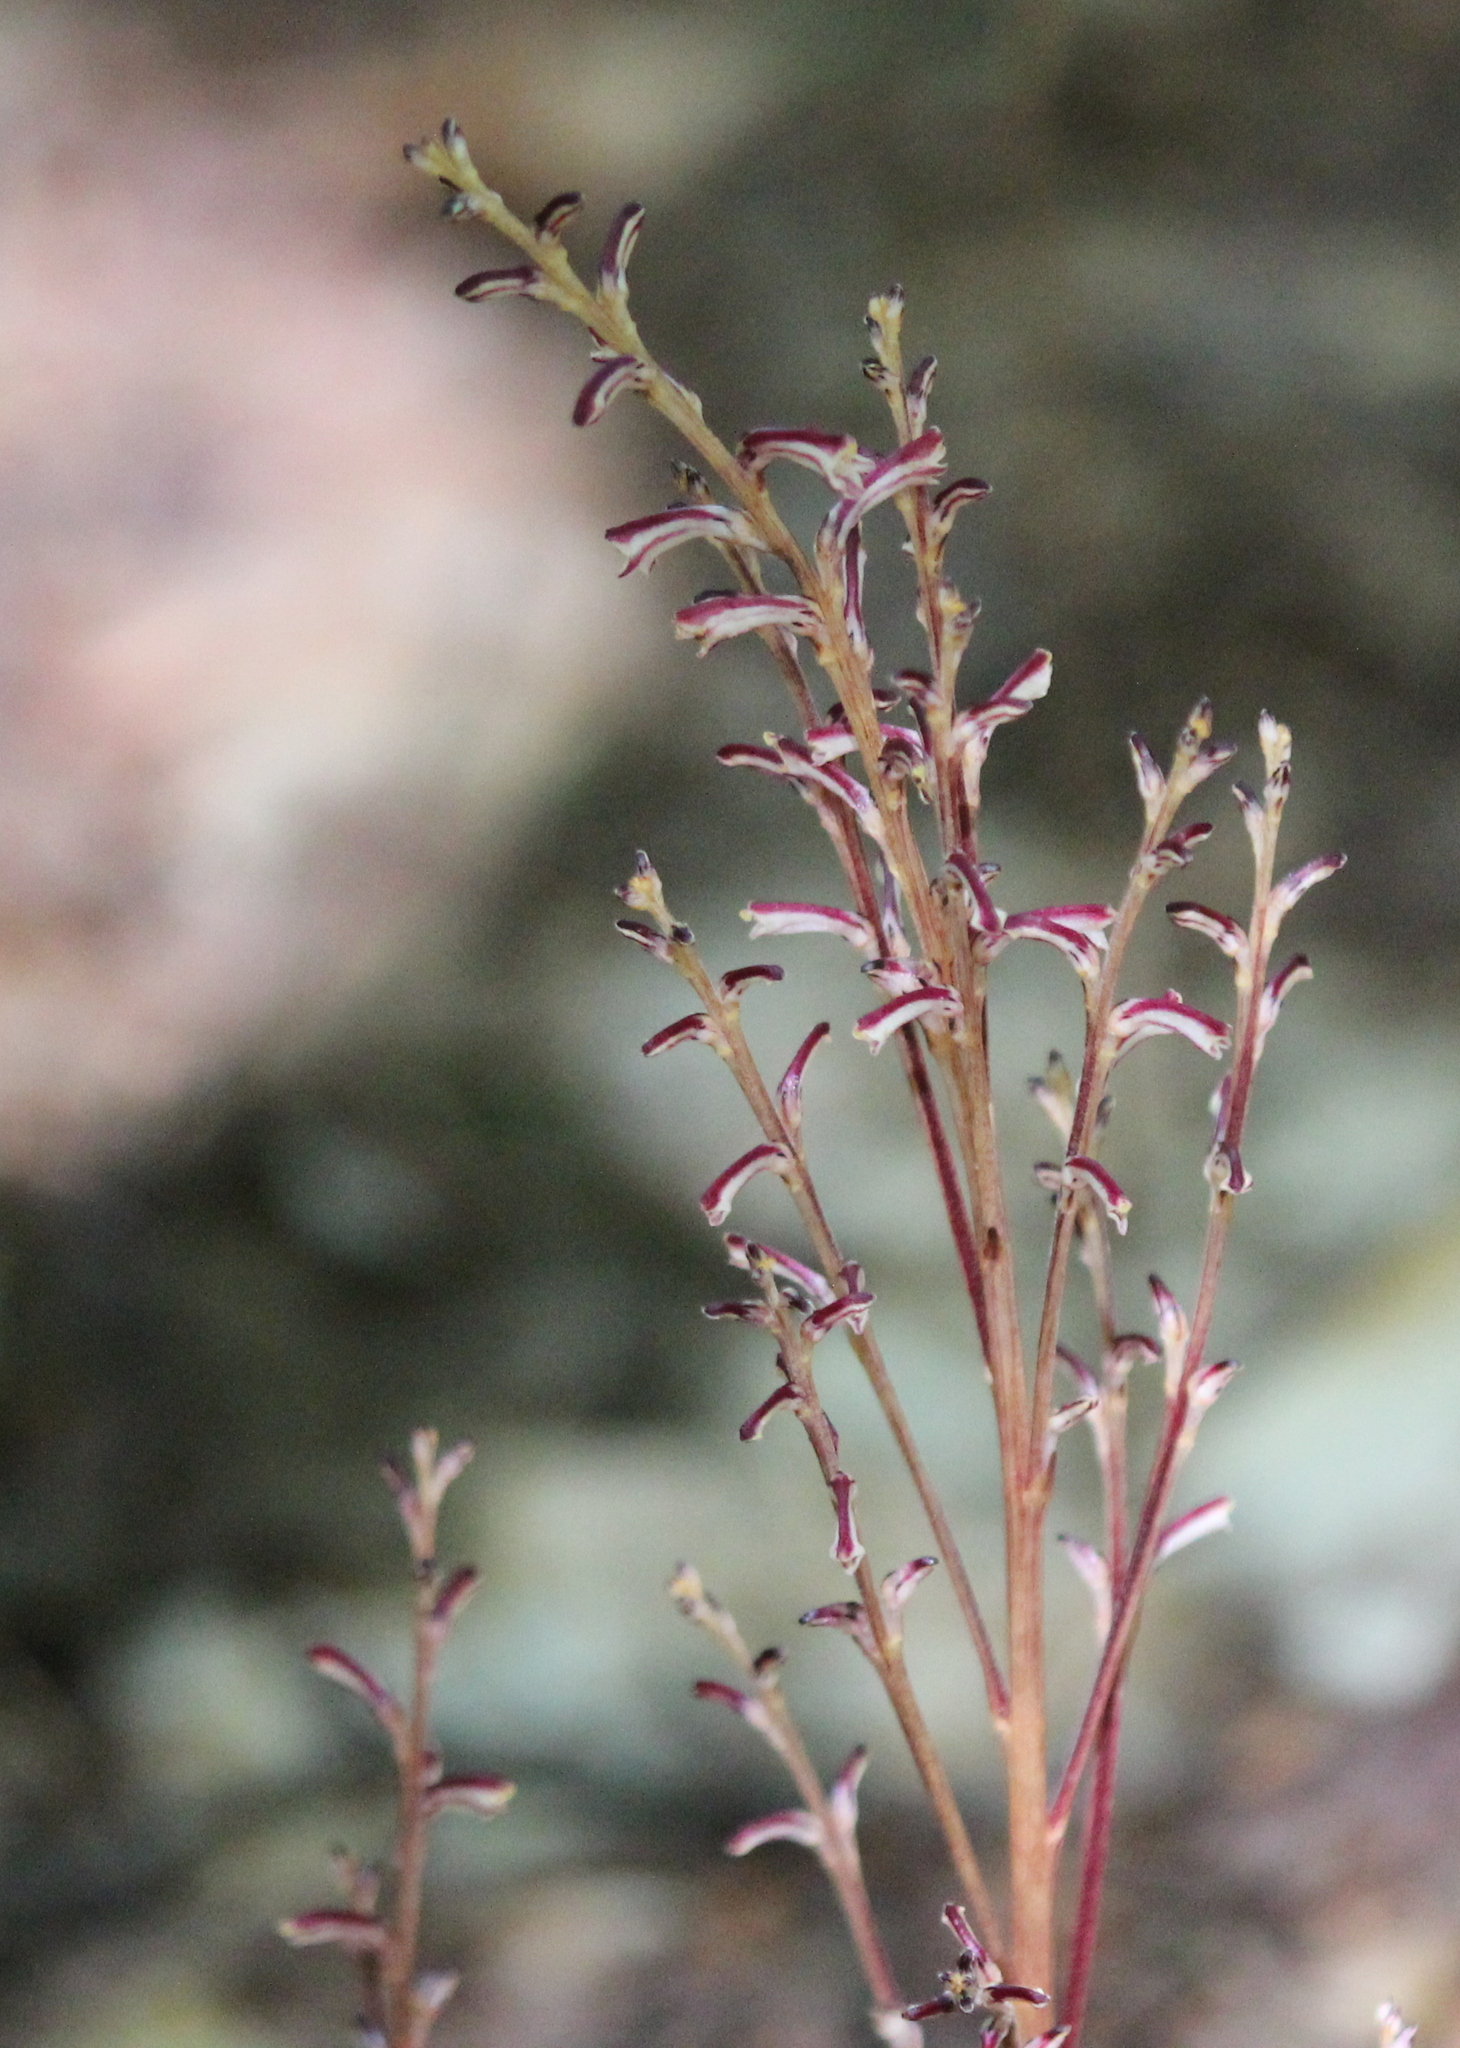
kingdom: Plantae
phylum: Tracheophyta
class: Magnoliopsida
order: Lamiales
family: Orobanchaceae
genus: Epifagus
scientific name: Epifagus virginiana
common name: Beechdrops
